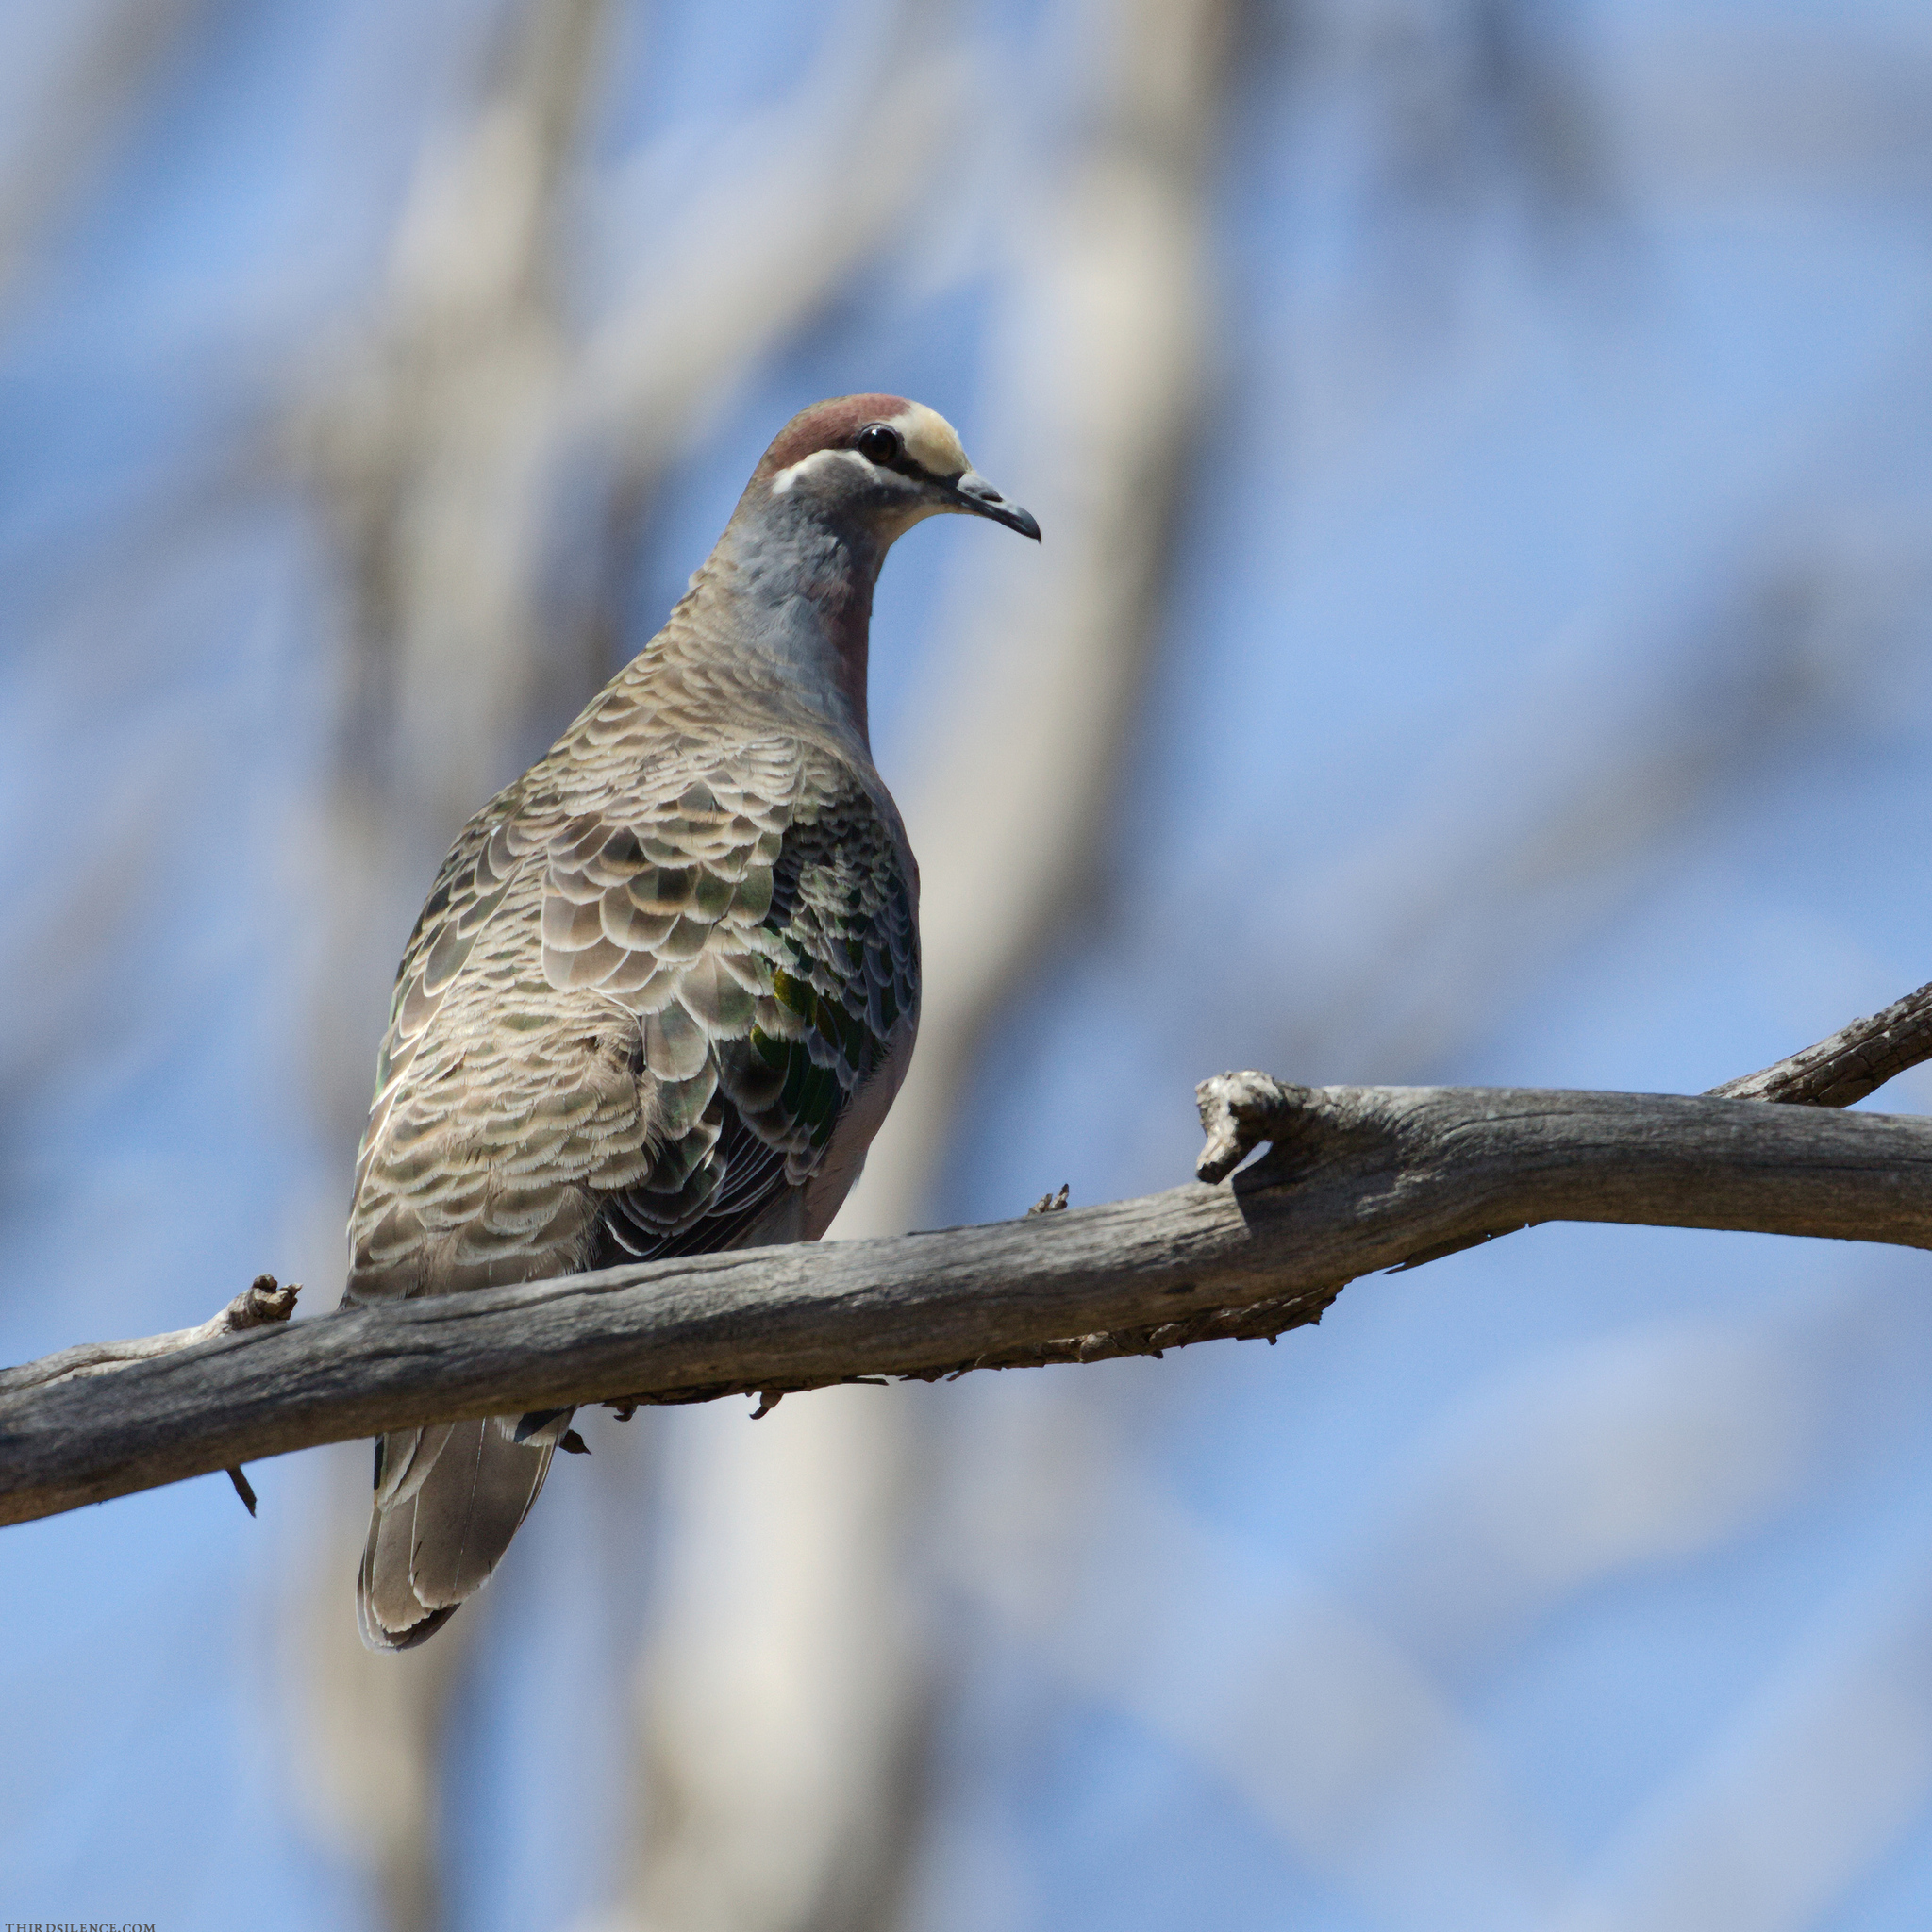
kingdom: Animalia
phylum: Chordata
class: Aves
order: Columbiformes
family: Columbidae
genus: Phaps
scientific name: Phaps chalcoptera
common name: Common bronzewing
